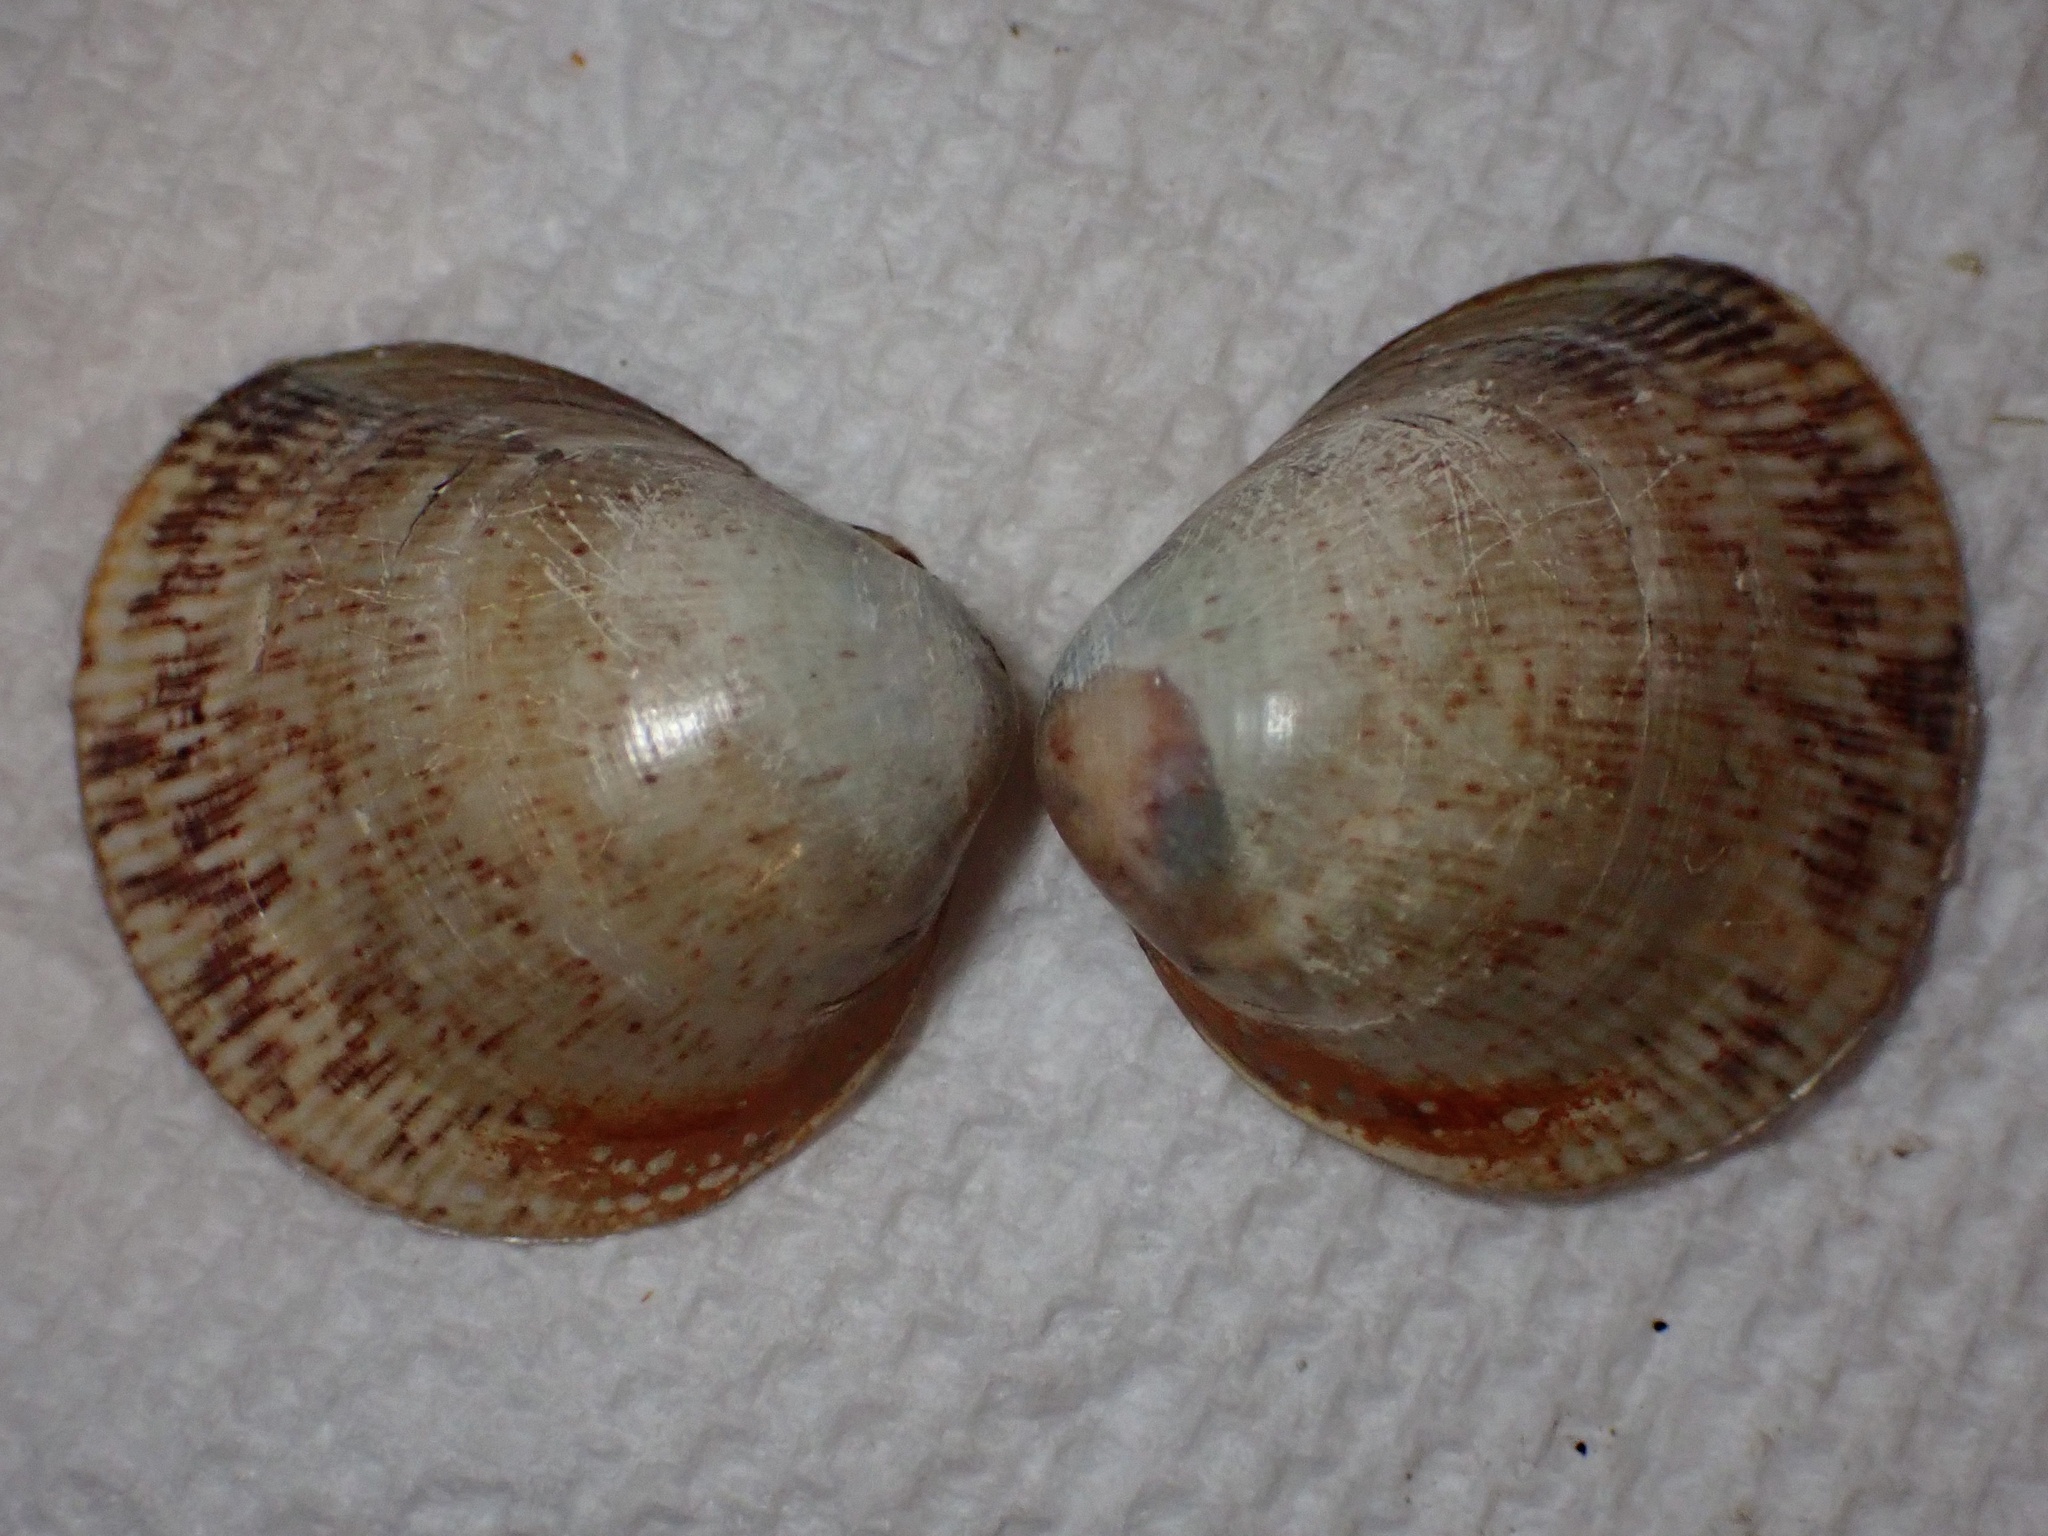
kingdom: Animalia
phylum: Mollusca
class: Bivalvia
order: Cardiida
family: Cardiidae
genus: Laevicardium
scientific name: Laevicardium substriatum
